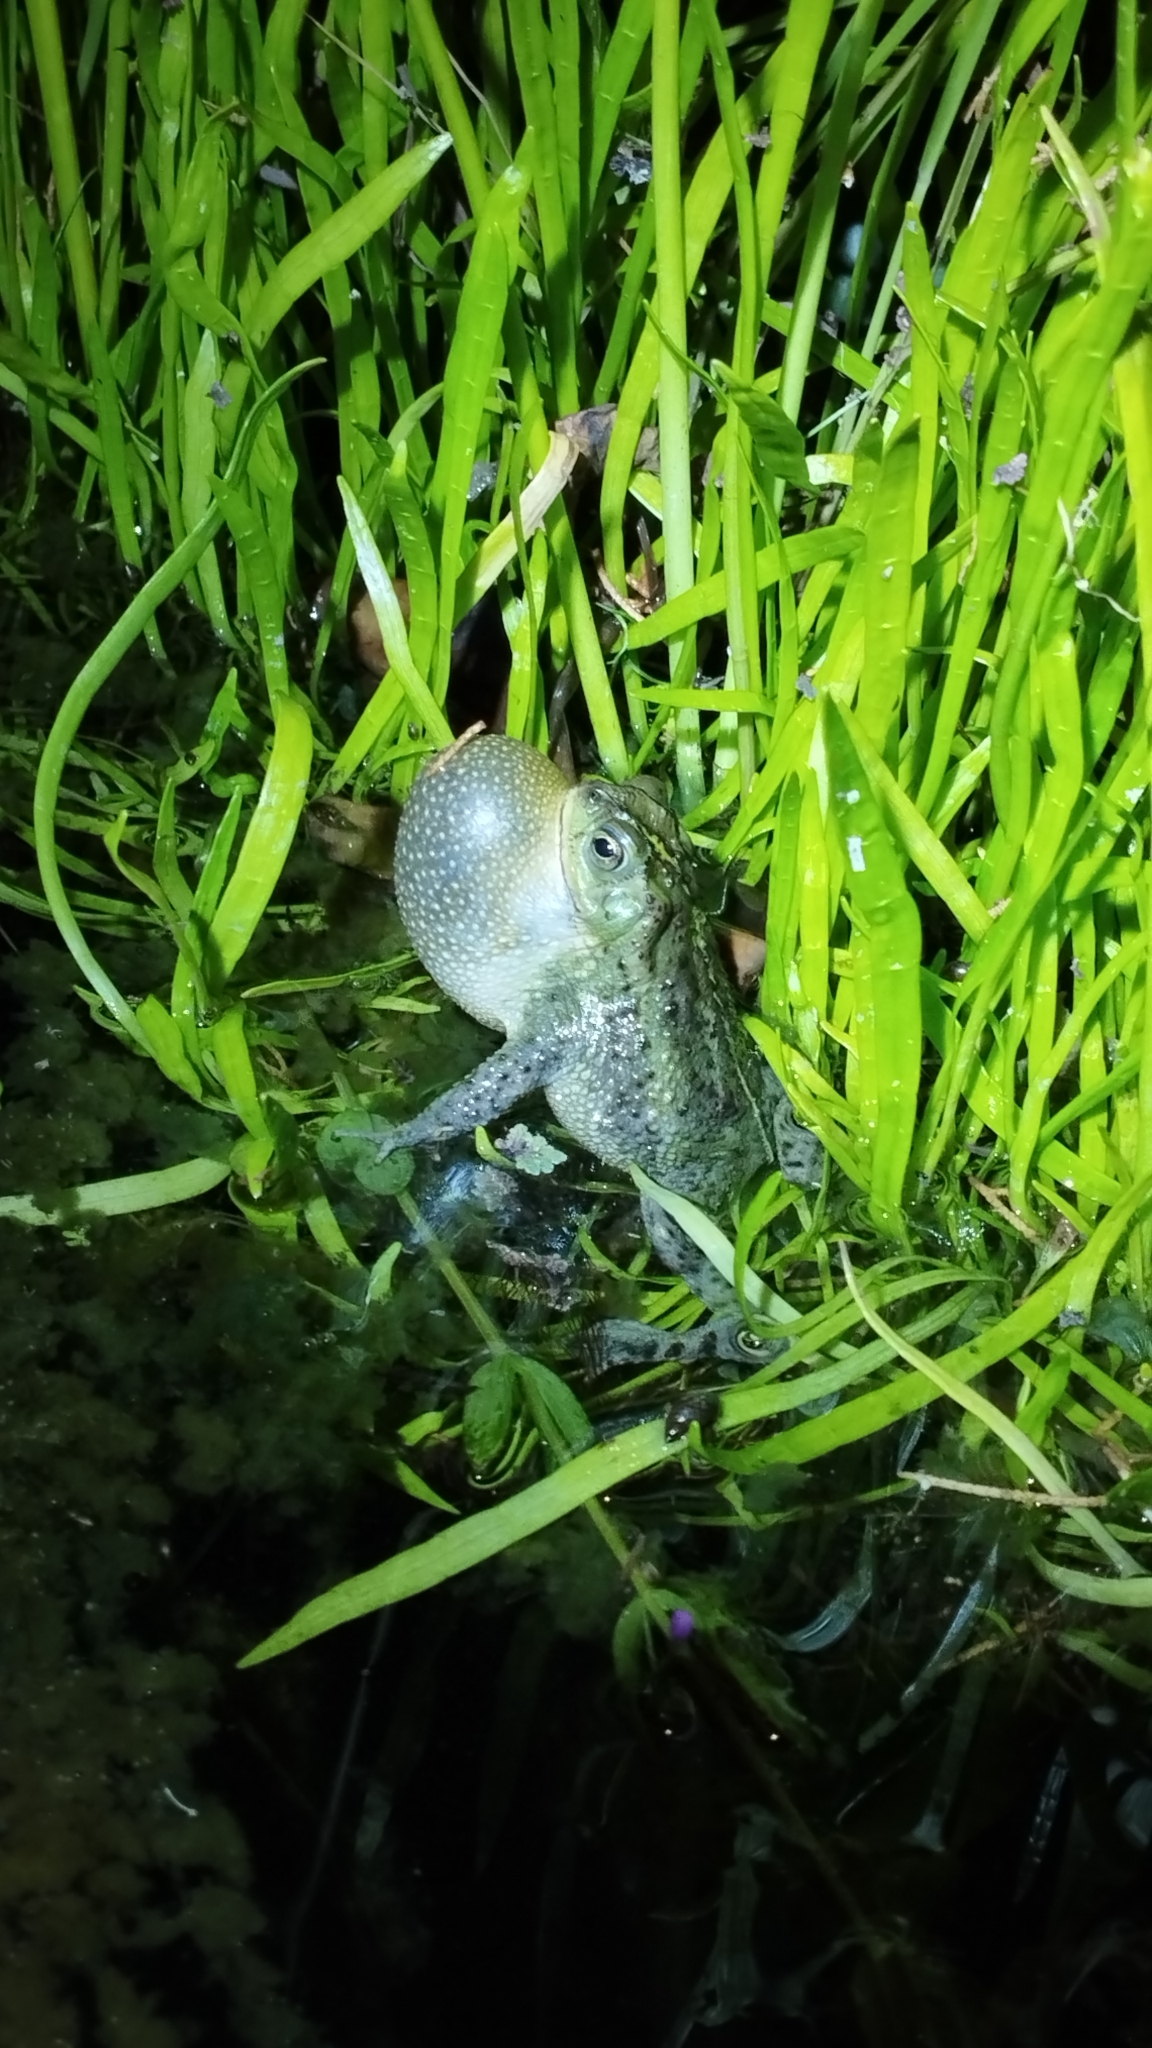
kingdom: Animalia
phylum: Chordata
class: Amphibia
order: Anura
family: Bufonidae
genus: Rhinella
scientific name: Rhinella dorbignyi
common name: D´orbigny’s toad
